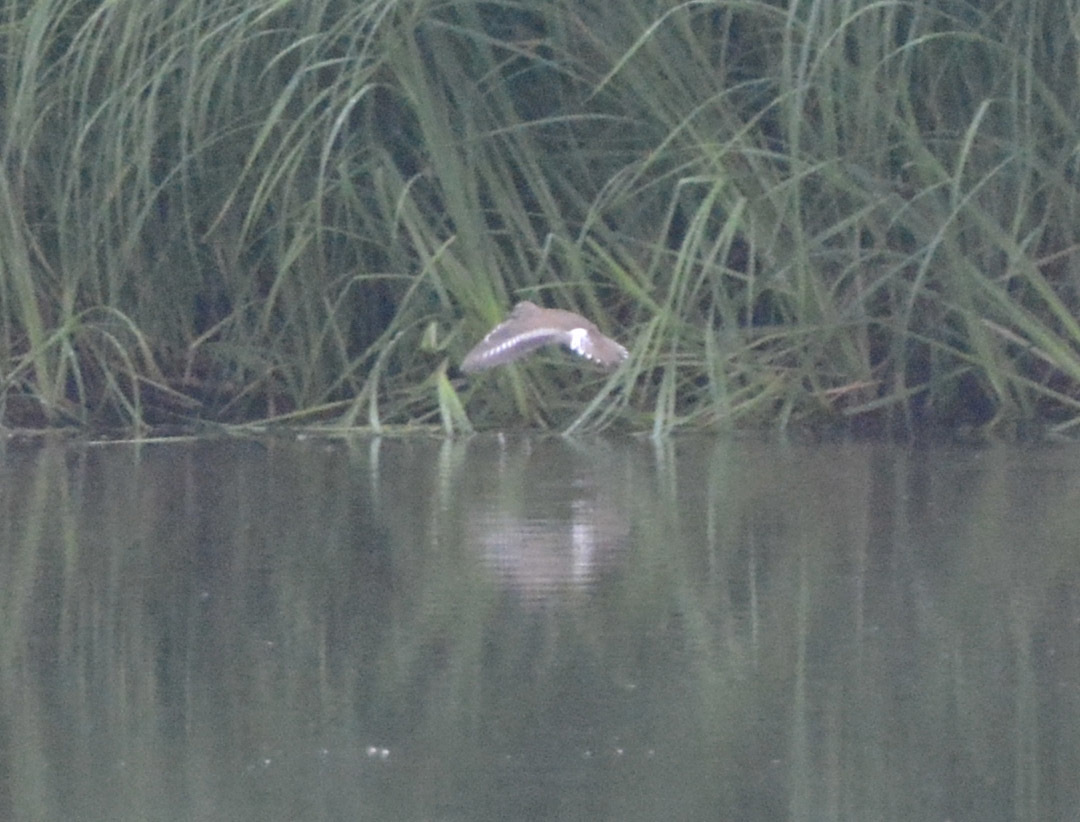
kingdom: Animalia
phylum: Chordata
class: Aves
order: Charadriiformes
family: Scolopacidae
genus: Actitis
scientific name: Actitis hypoleucos
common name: Common sandpiper
